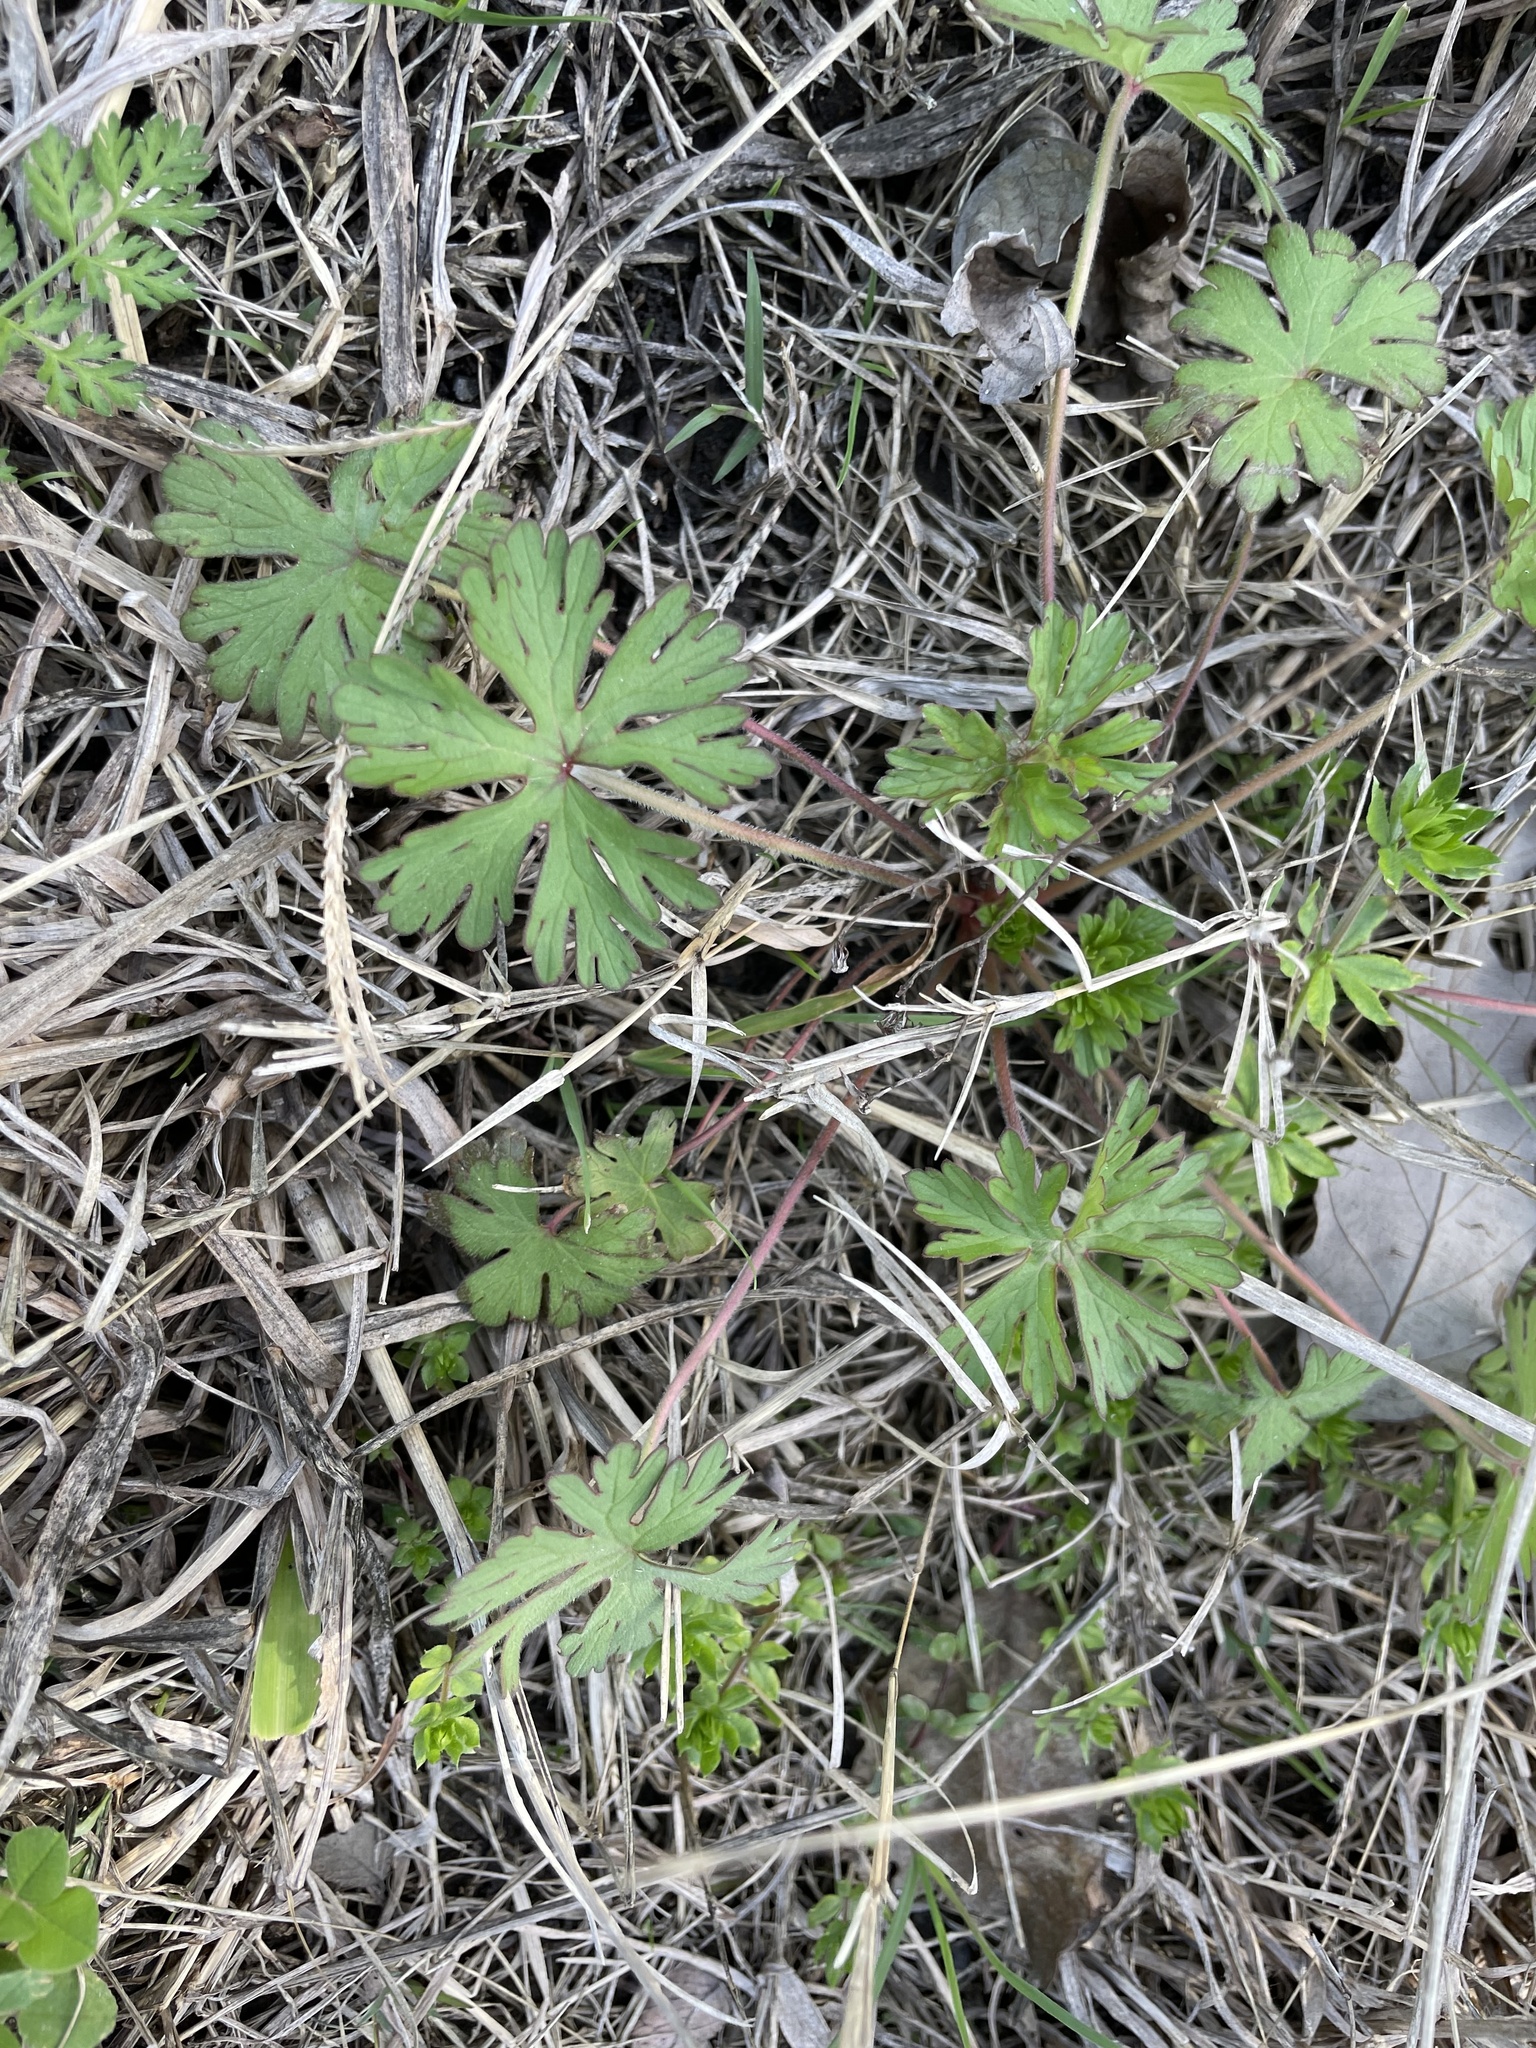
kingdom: Plantae
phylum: Tracheophyta
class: Magnoliopsida
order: Geraniales
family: Geraniaceae
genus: Geranium
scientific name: Geranium carolinianum
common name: Carolina crane's-bill
